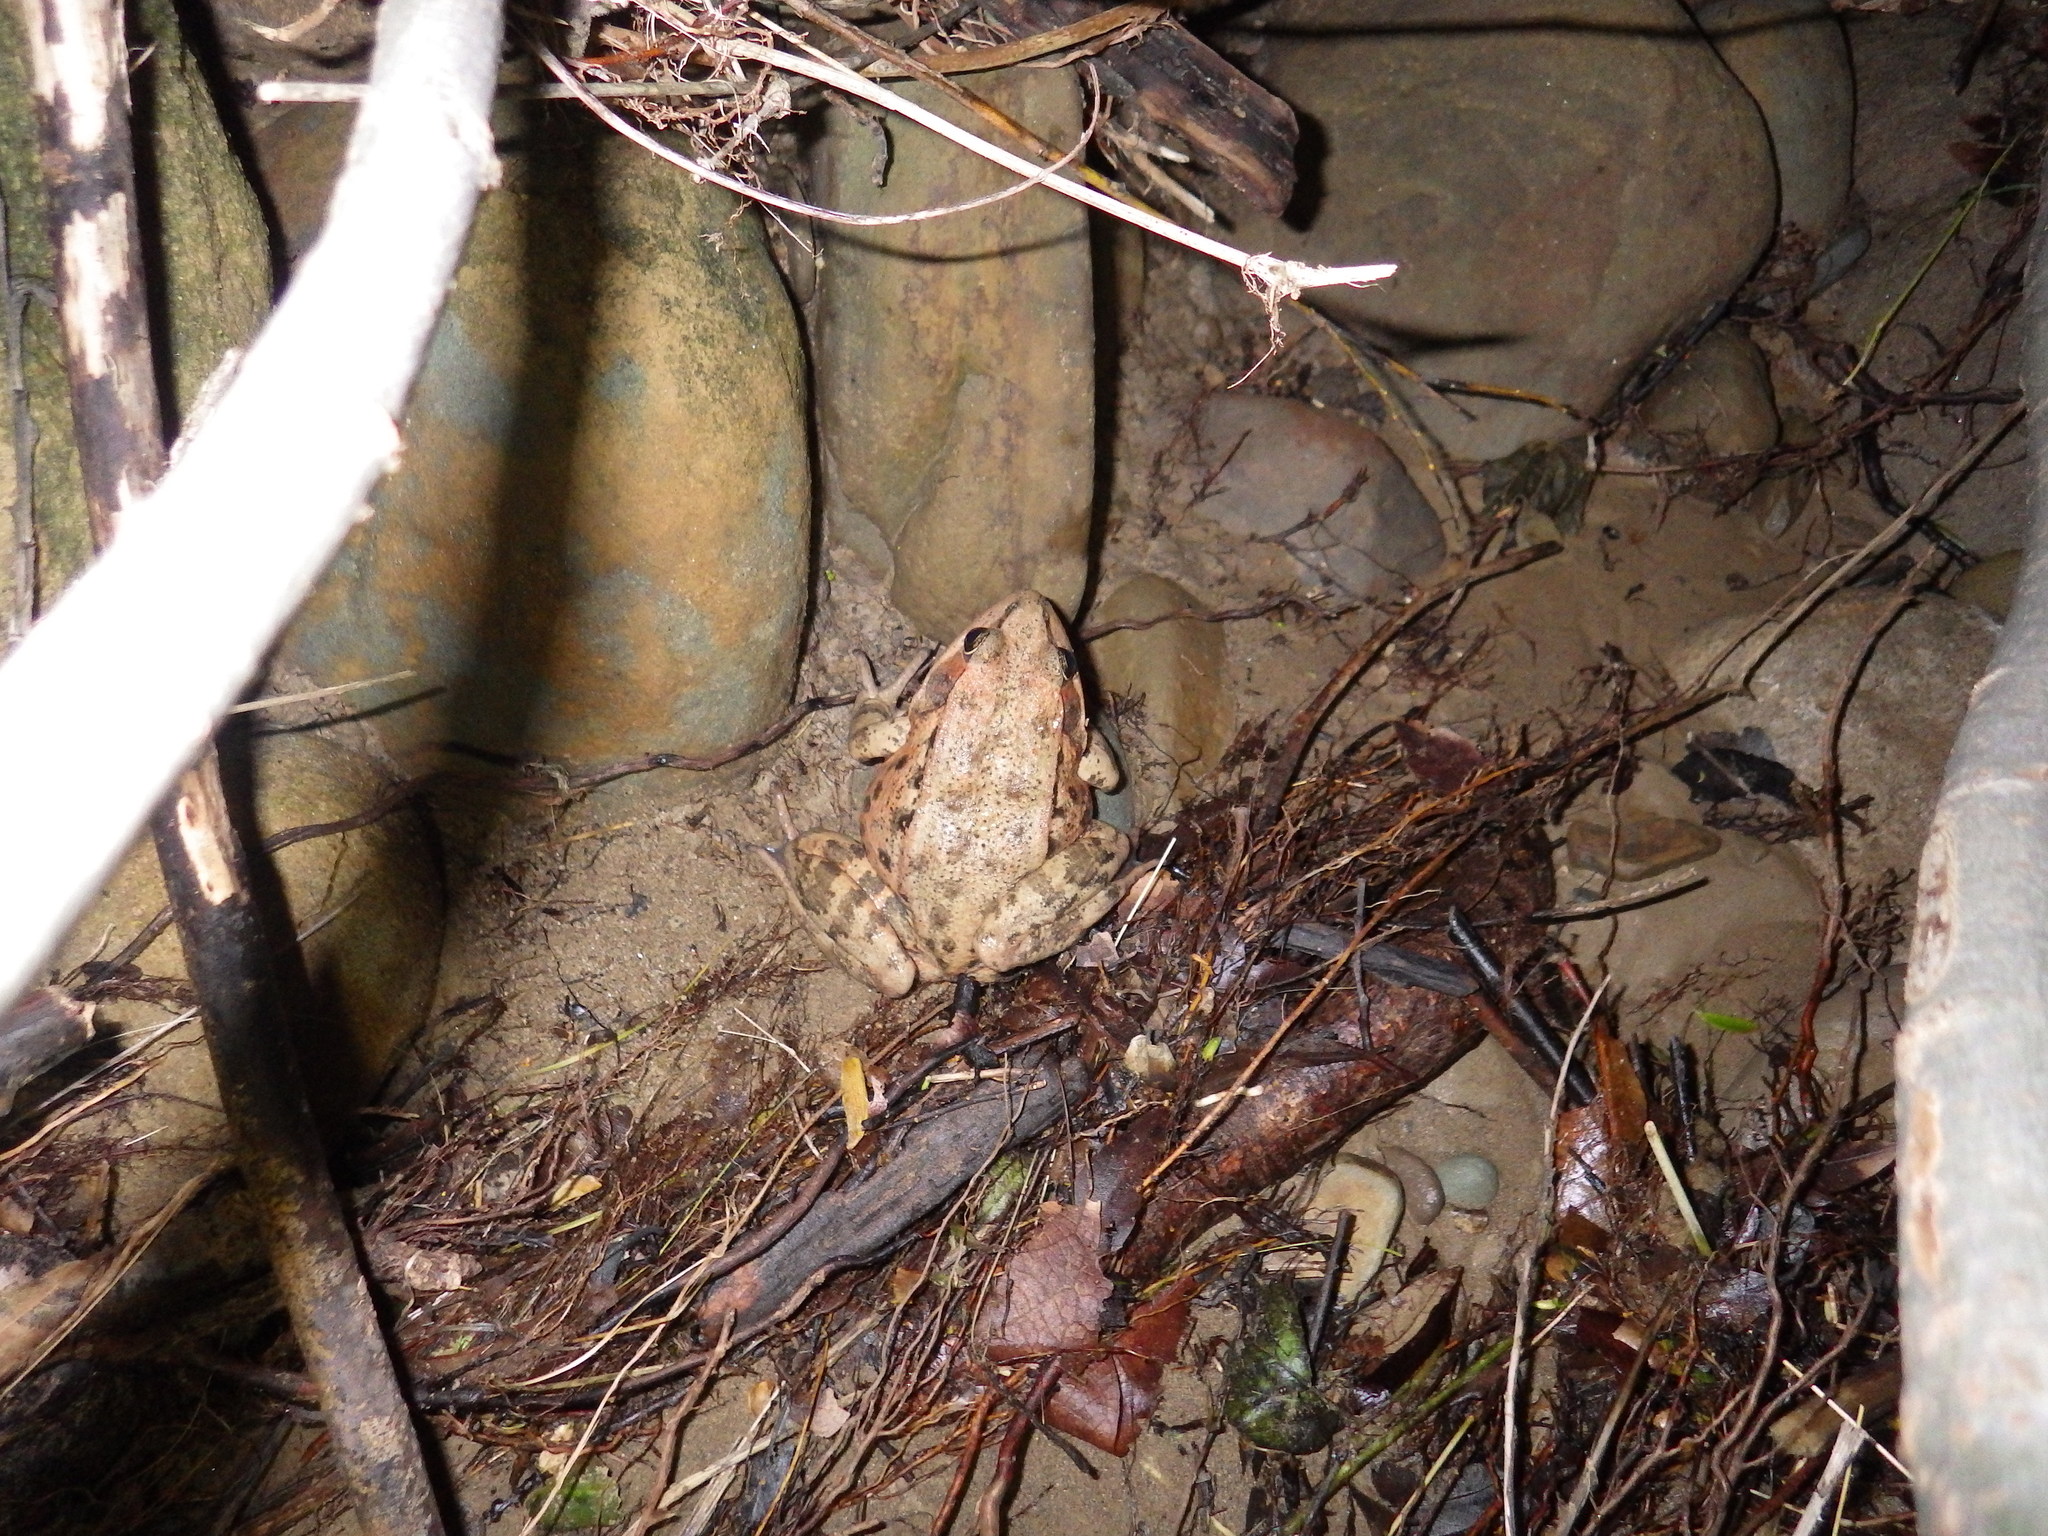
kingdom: Animalia
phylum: Chordata
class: Amphibia
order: Anura
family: Ranidae
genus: Rana
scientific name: Rana draytonii
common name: California red-legged frog
